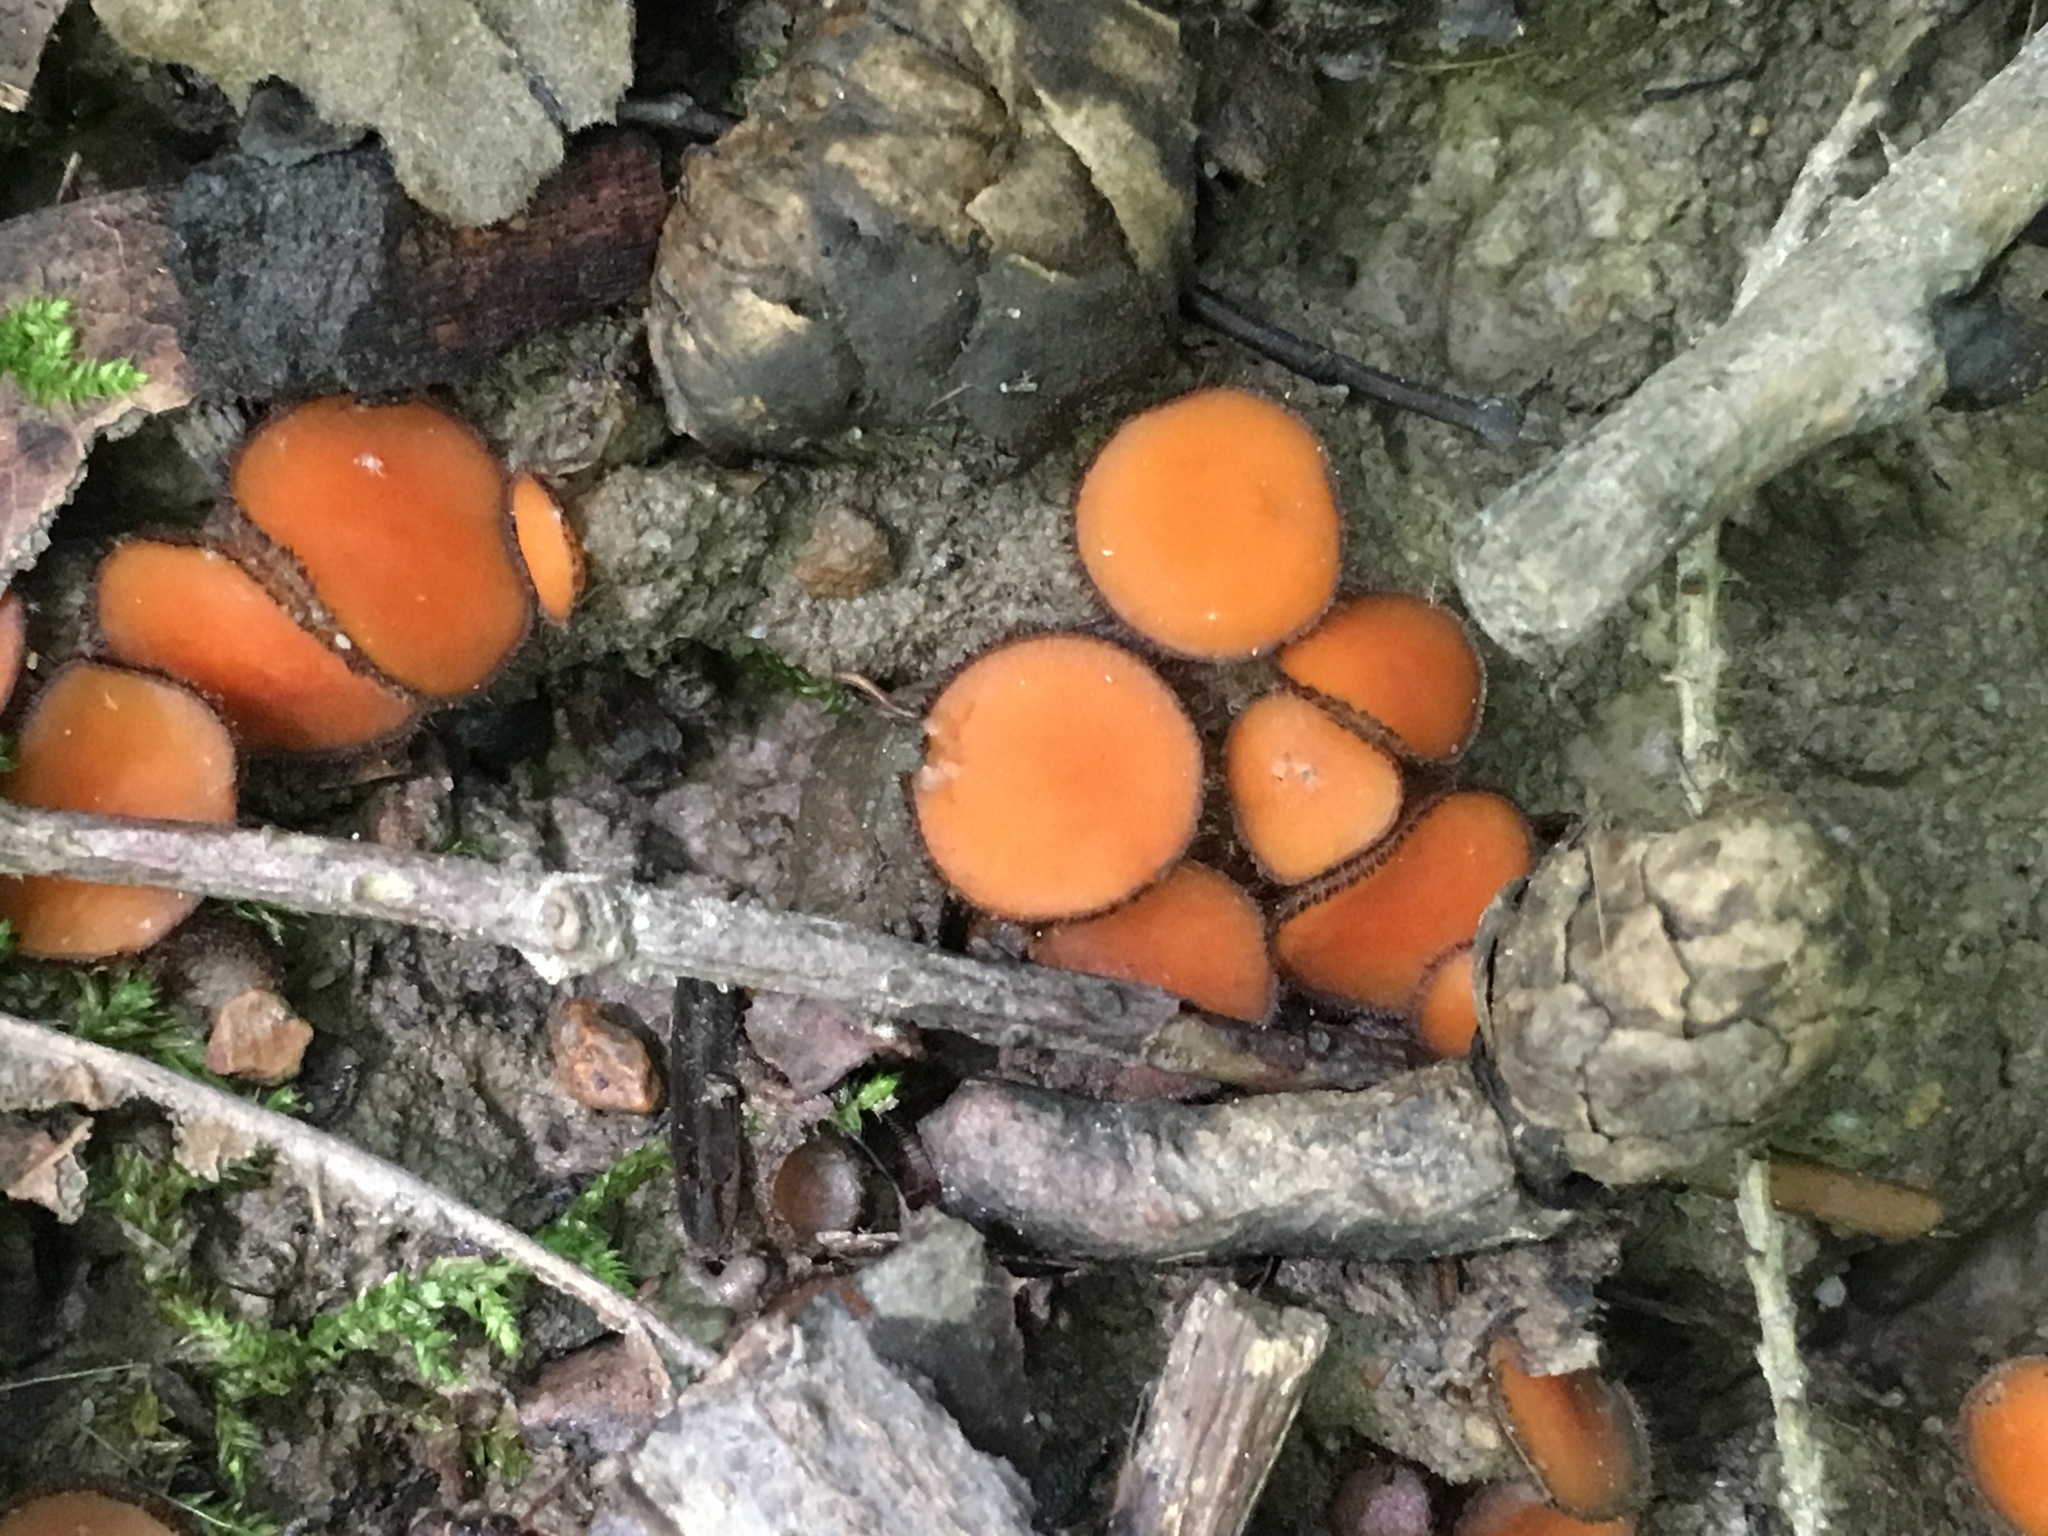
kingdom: Fungi
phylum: Ascomycota
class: Pezizomycetes
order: Pezizales
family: Pyronemataceae
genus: Scutellinia
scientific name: Scutellinia scutellata
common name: Common eyelash
